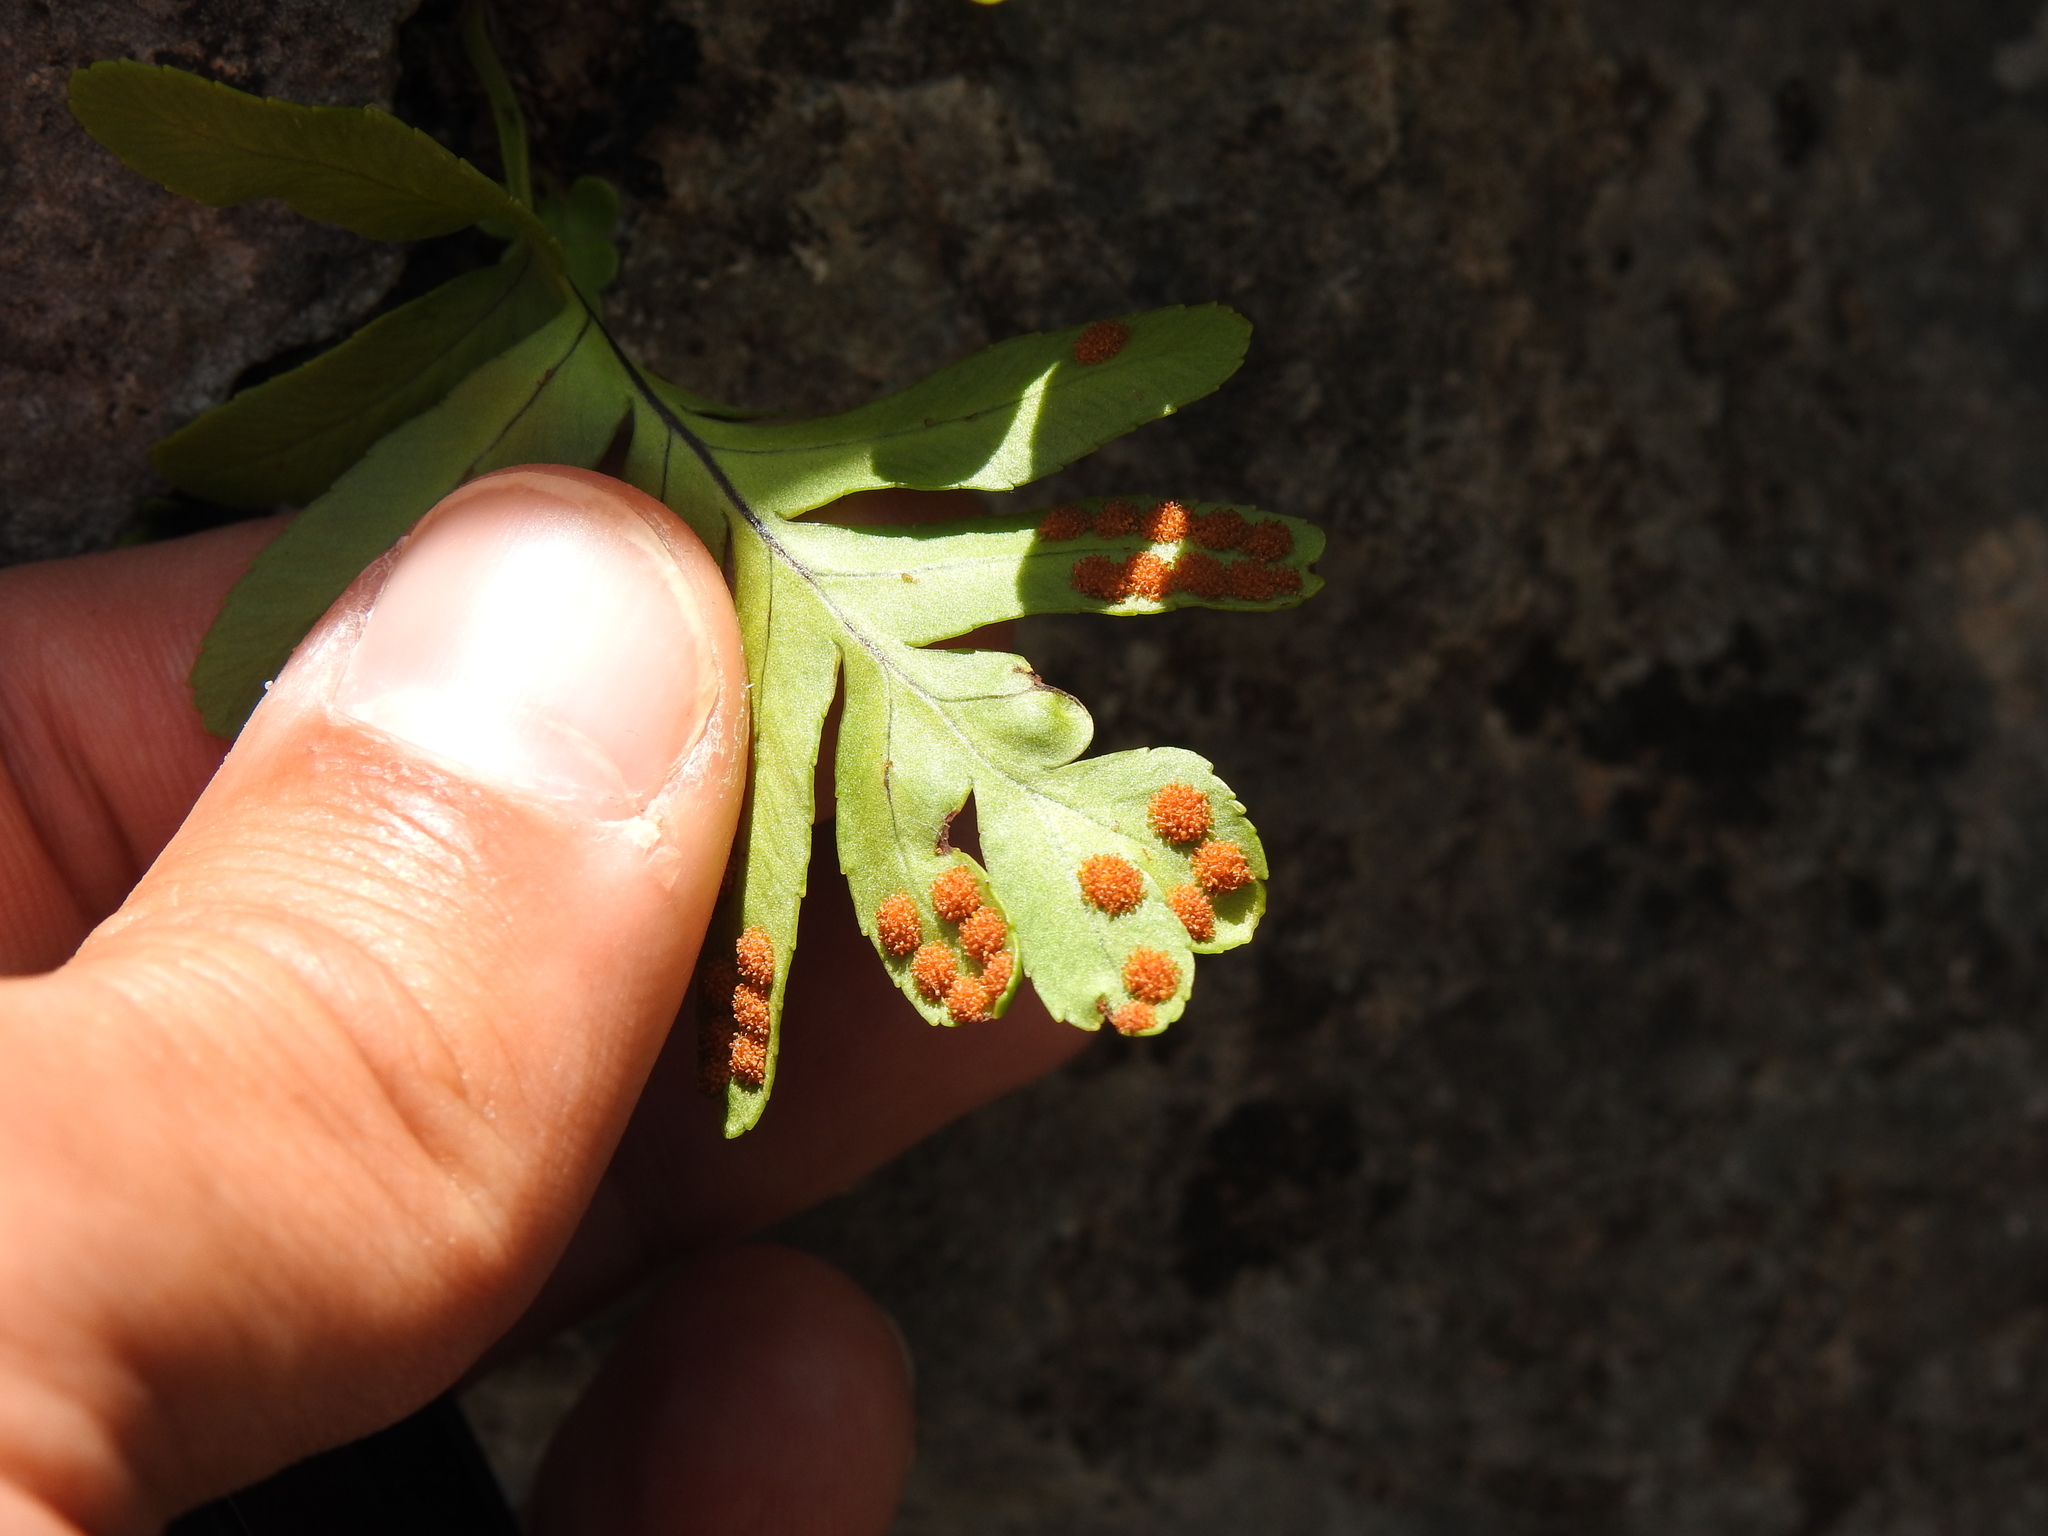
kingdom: Plantae
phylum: Tracheophyta
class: Polypodiopsida
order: Polypodiales
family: Polypodiaceae
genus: Polypodium
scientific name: Polypodium cambricum
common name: Southern polypody
